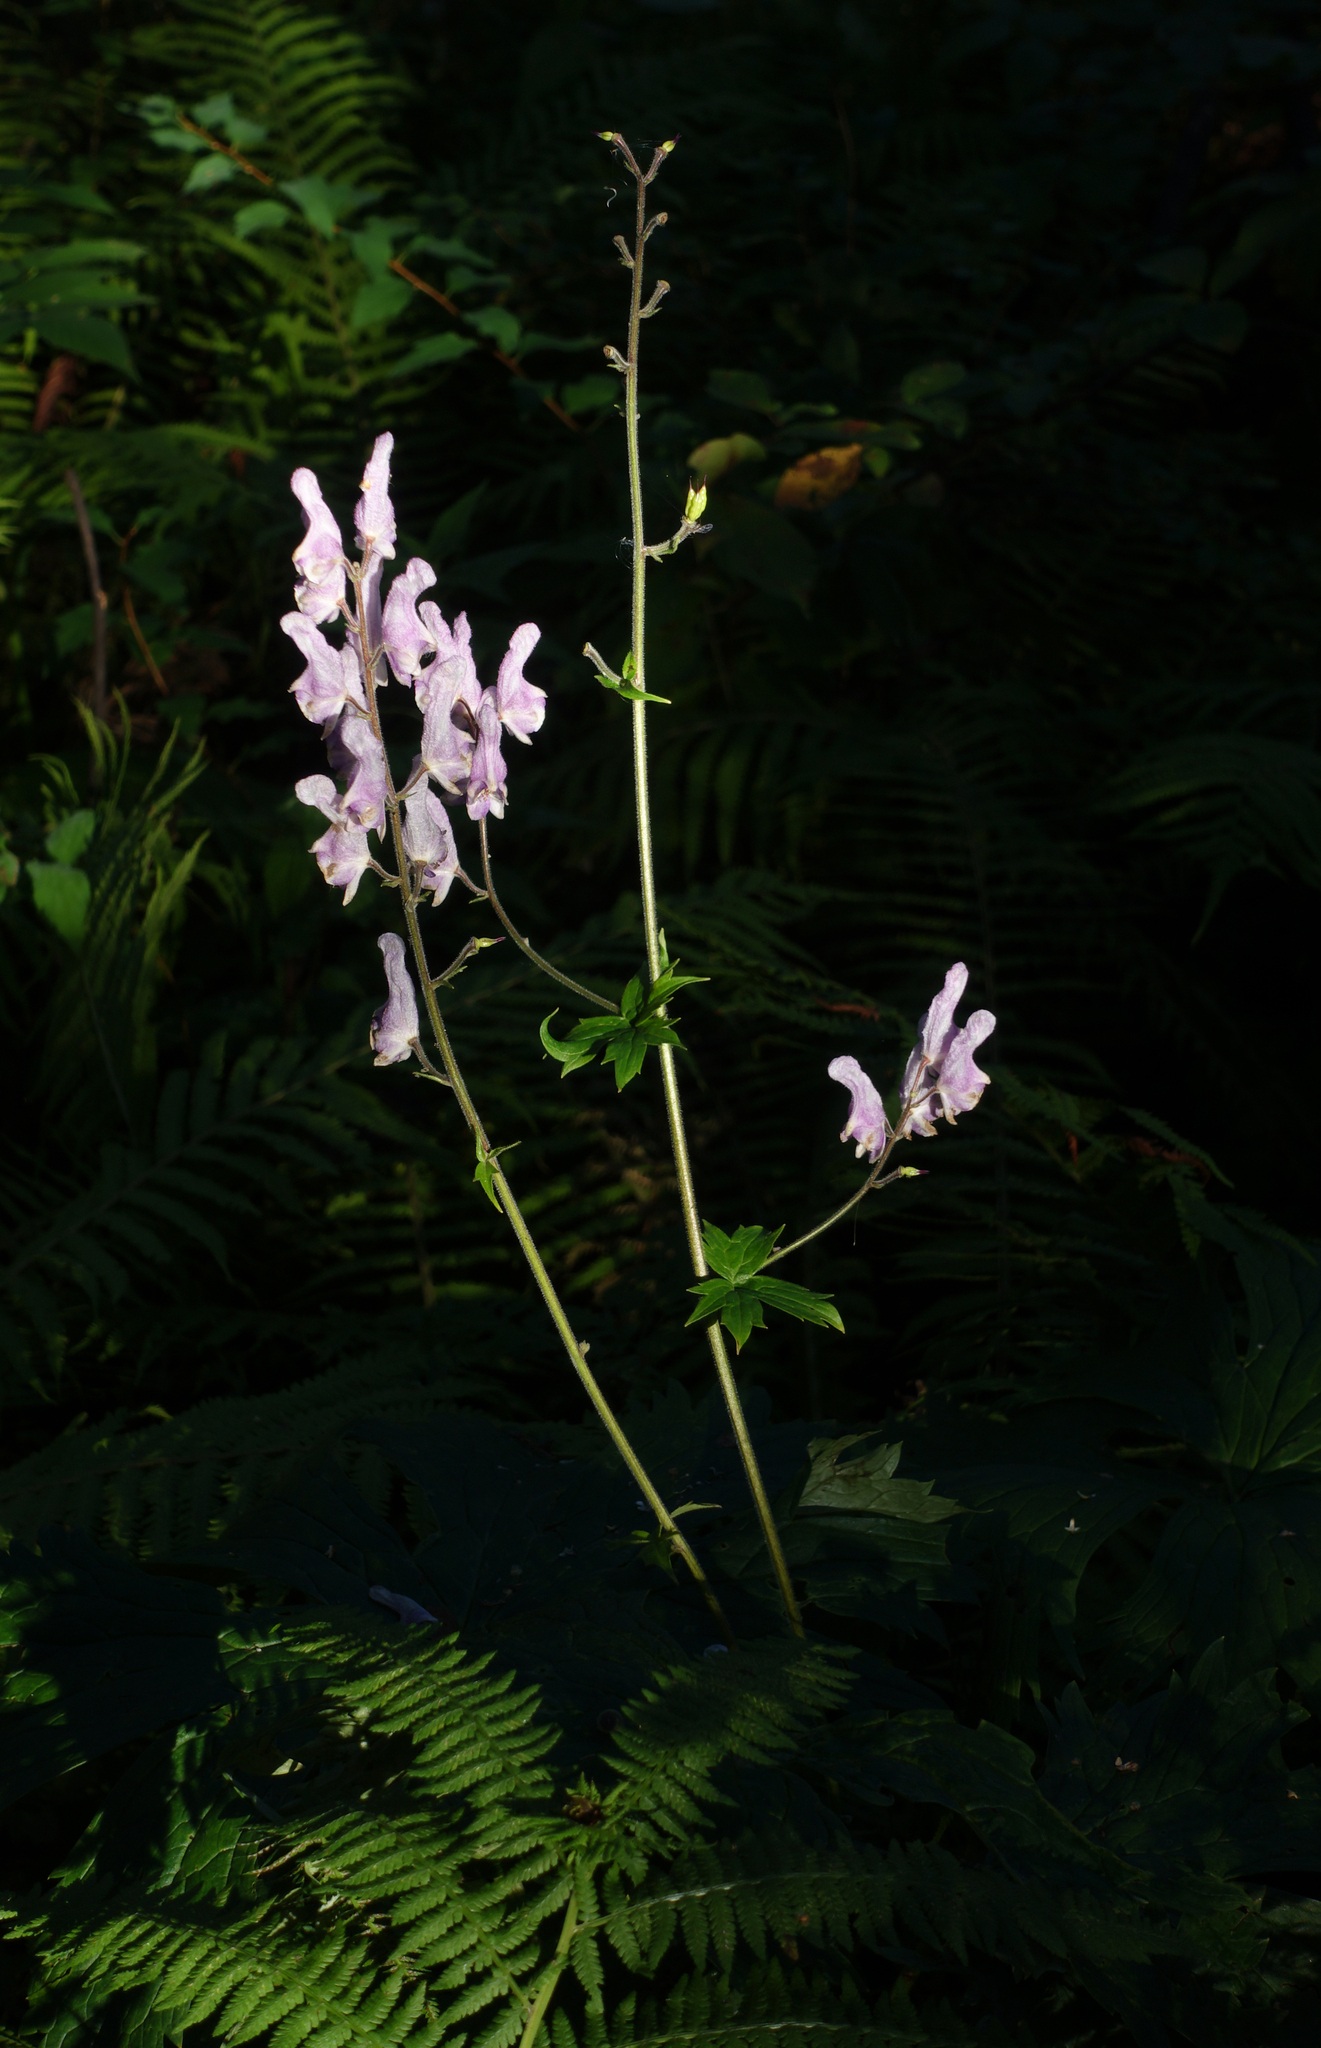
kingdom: Plantae
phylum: Tracheophyta
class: Magnoliopsida
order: Ranunculales
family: Ranunculaceae
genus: Aconitum
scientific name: Aconitum septentrionale
